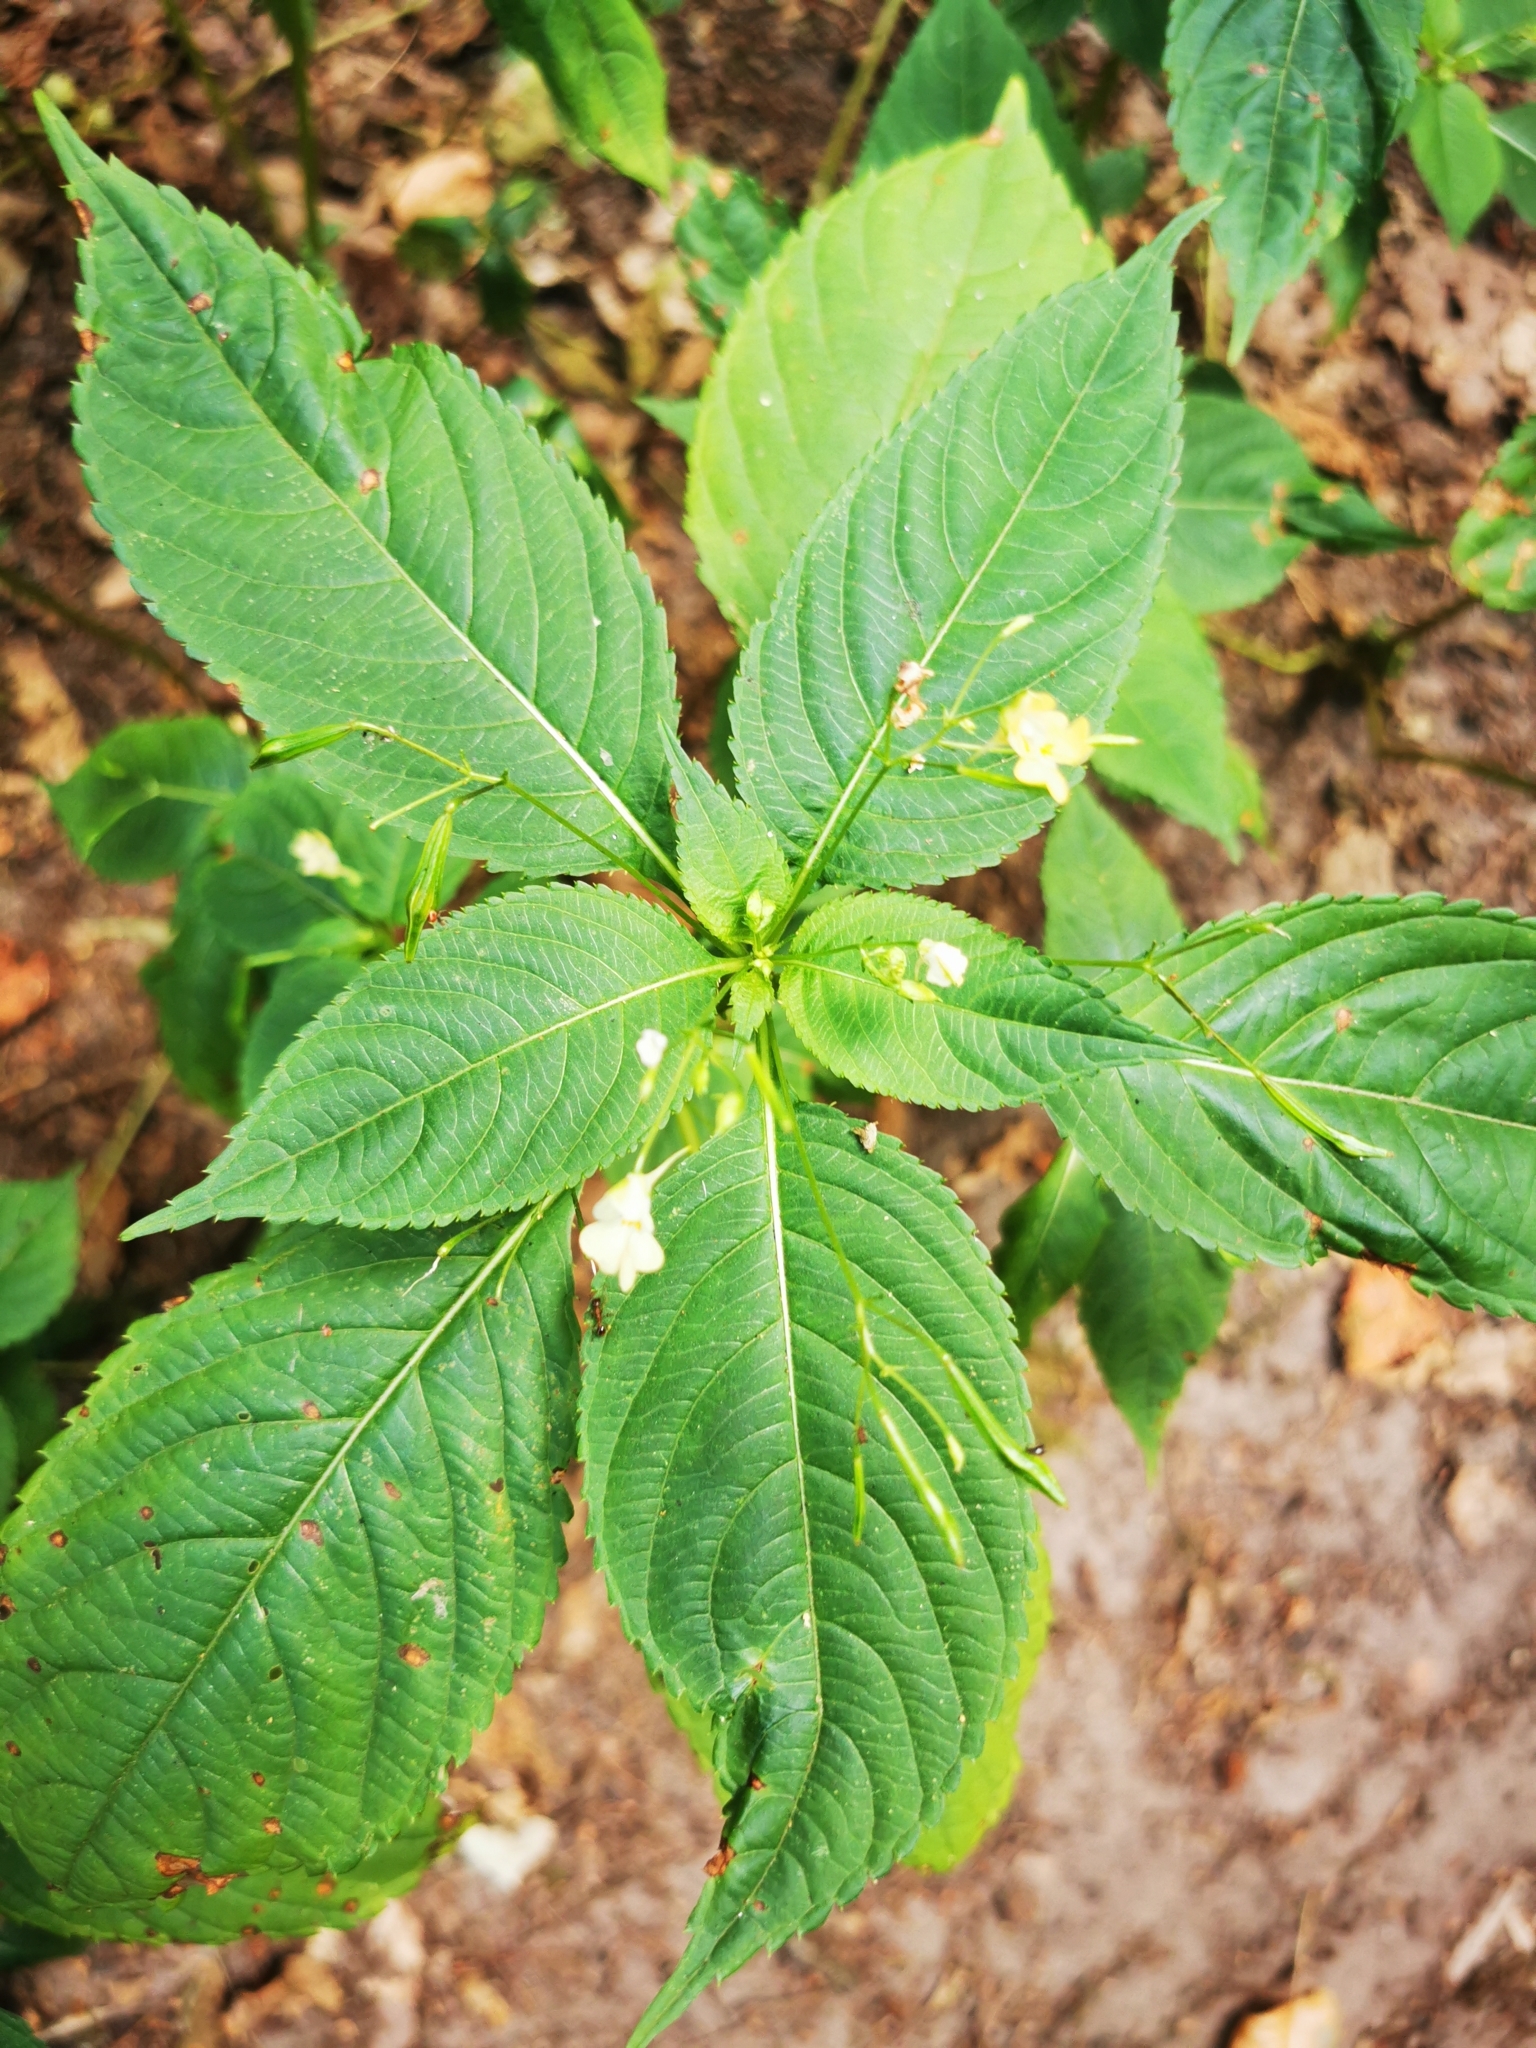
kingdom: Plantae
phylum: Tracheophyta
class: Magnoliopsida
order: Ericales
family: Balsaminaceae
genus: Impatiens
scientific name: Impatiens parviflora
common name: Small balsam
